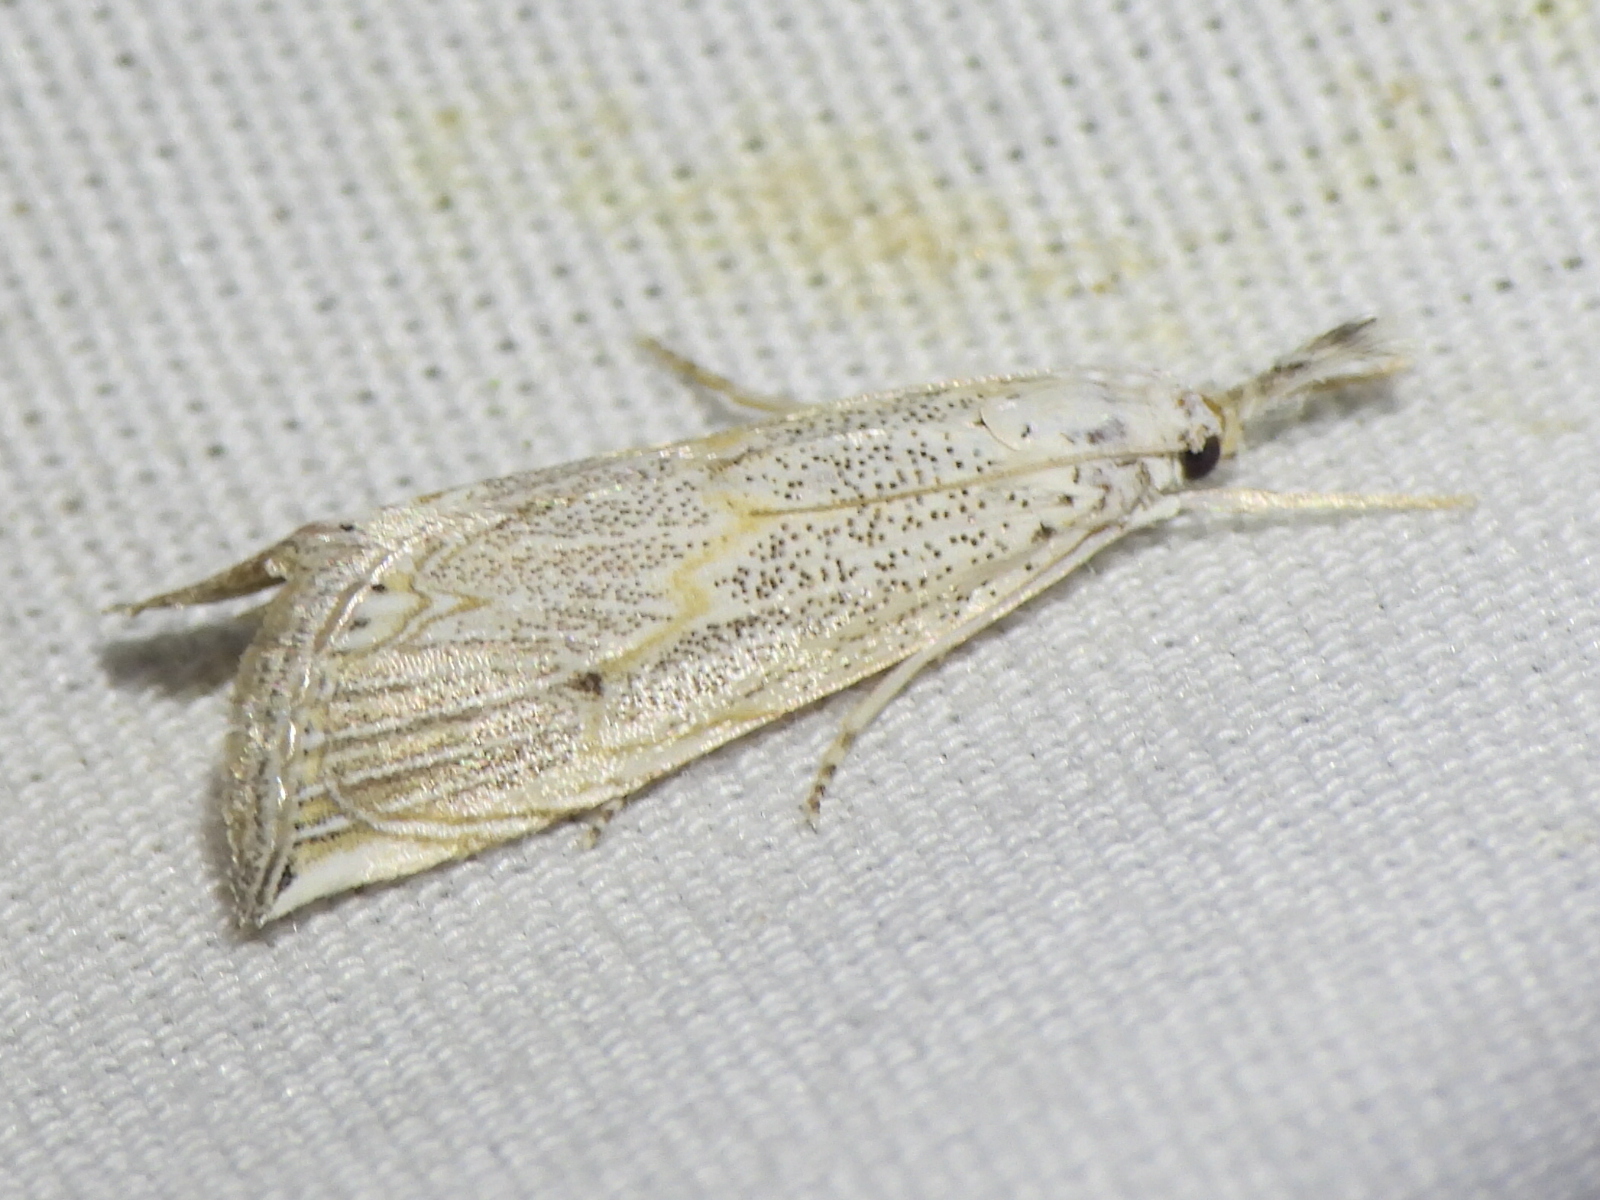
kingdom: Animalia
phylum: Arthropoda
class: Insecta
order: Lepidoptera
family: Crambidae
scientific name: Crambidae
